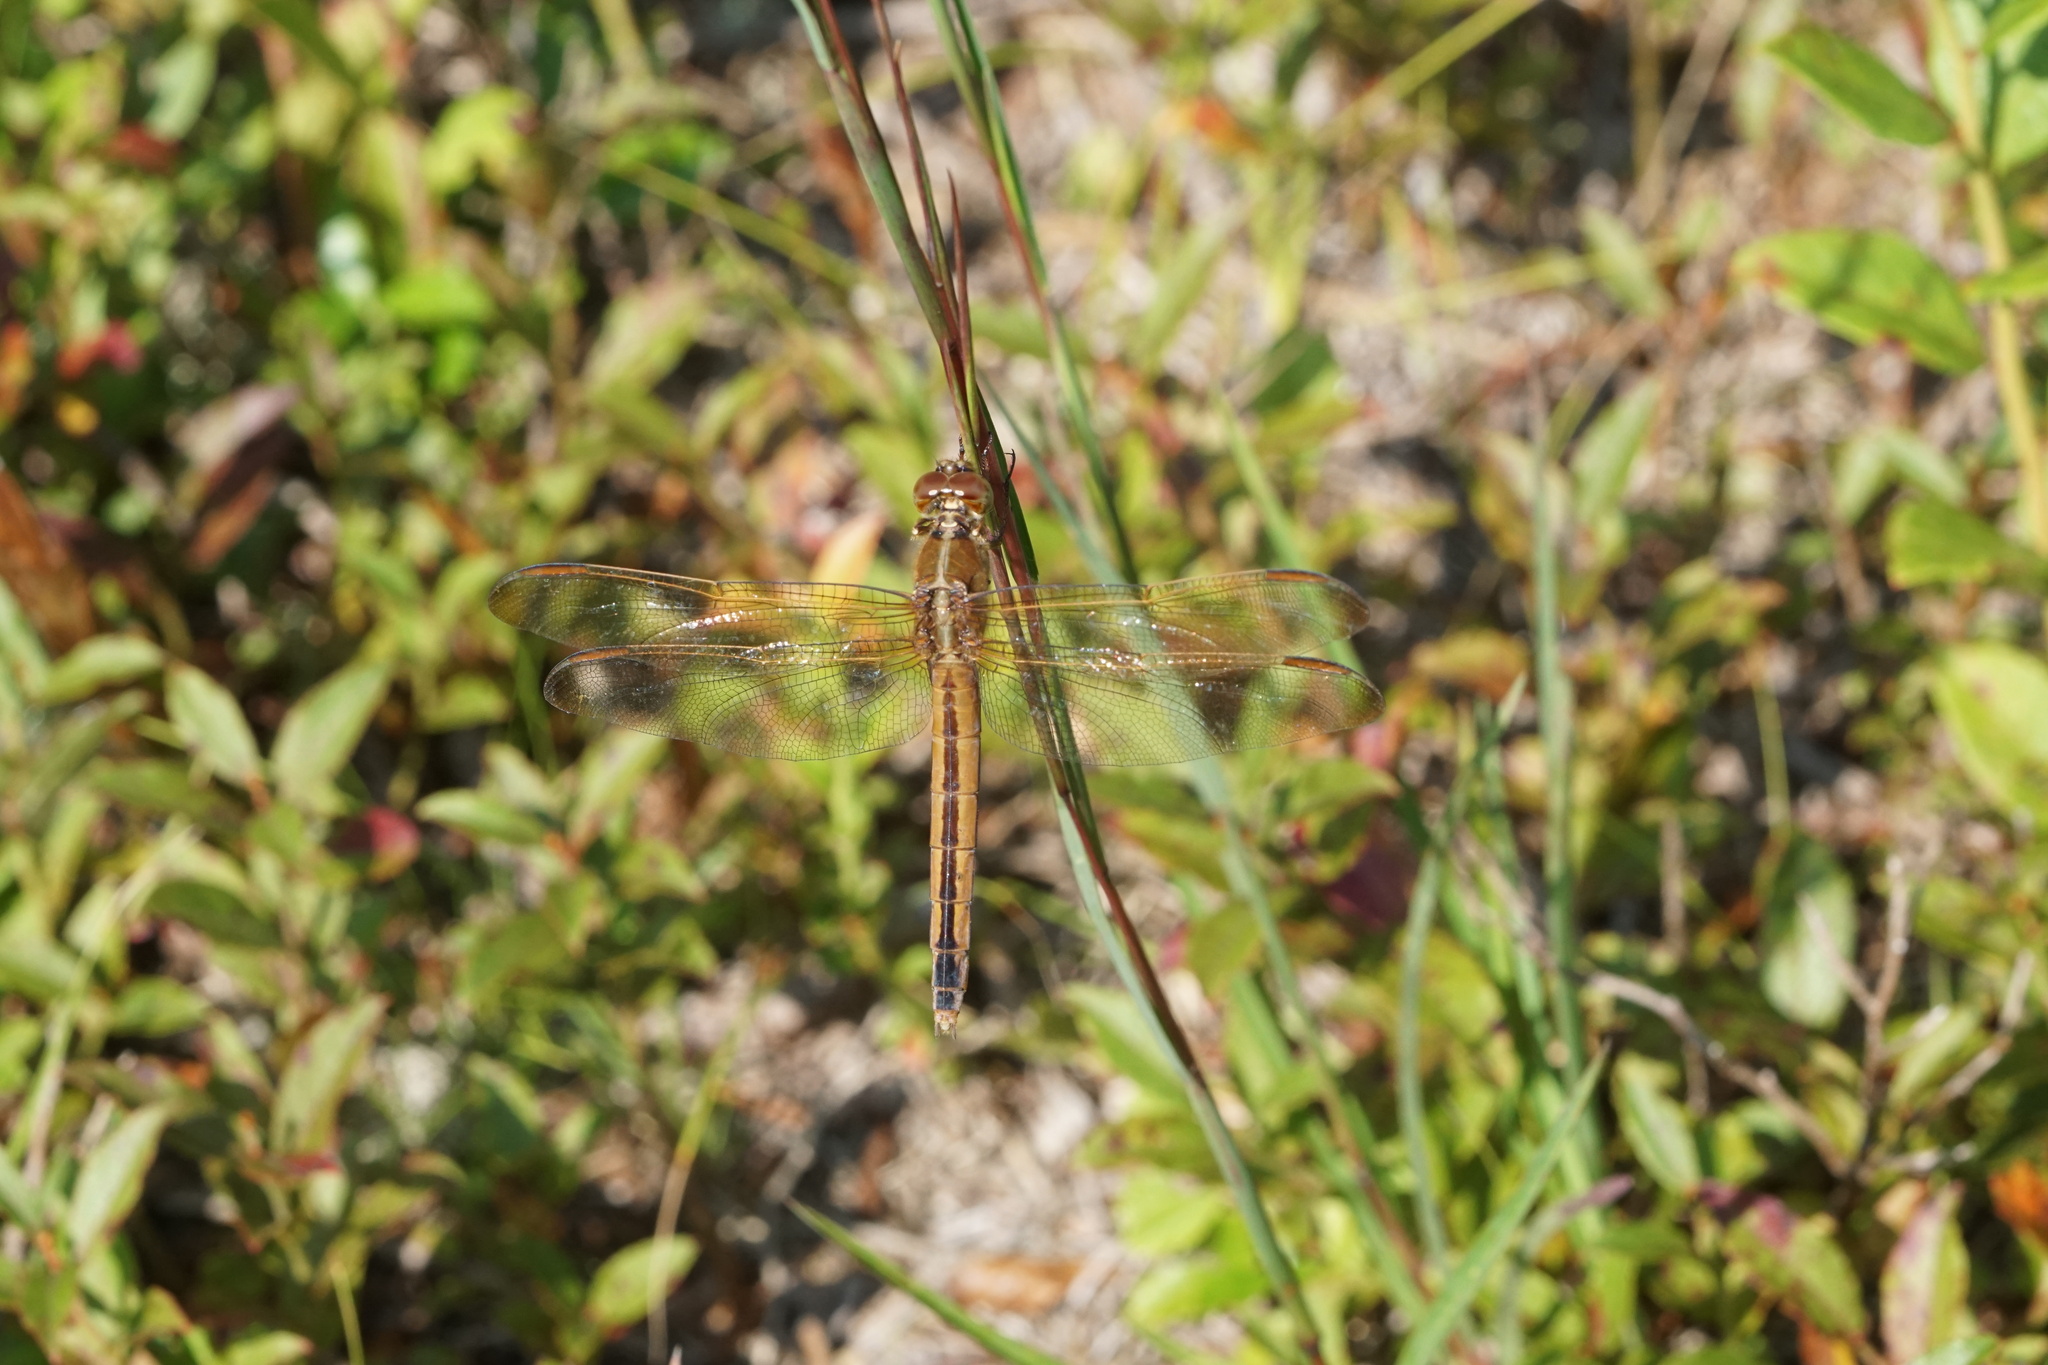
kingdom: Animalia
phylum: Arthropoda
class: Insecta
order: Odonata
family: Libellulidae
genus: Libellula
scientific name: Libellula needhami
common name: Needham's skimmer
